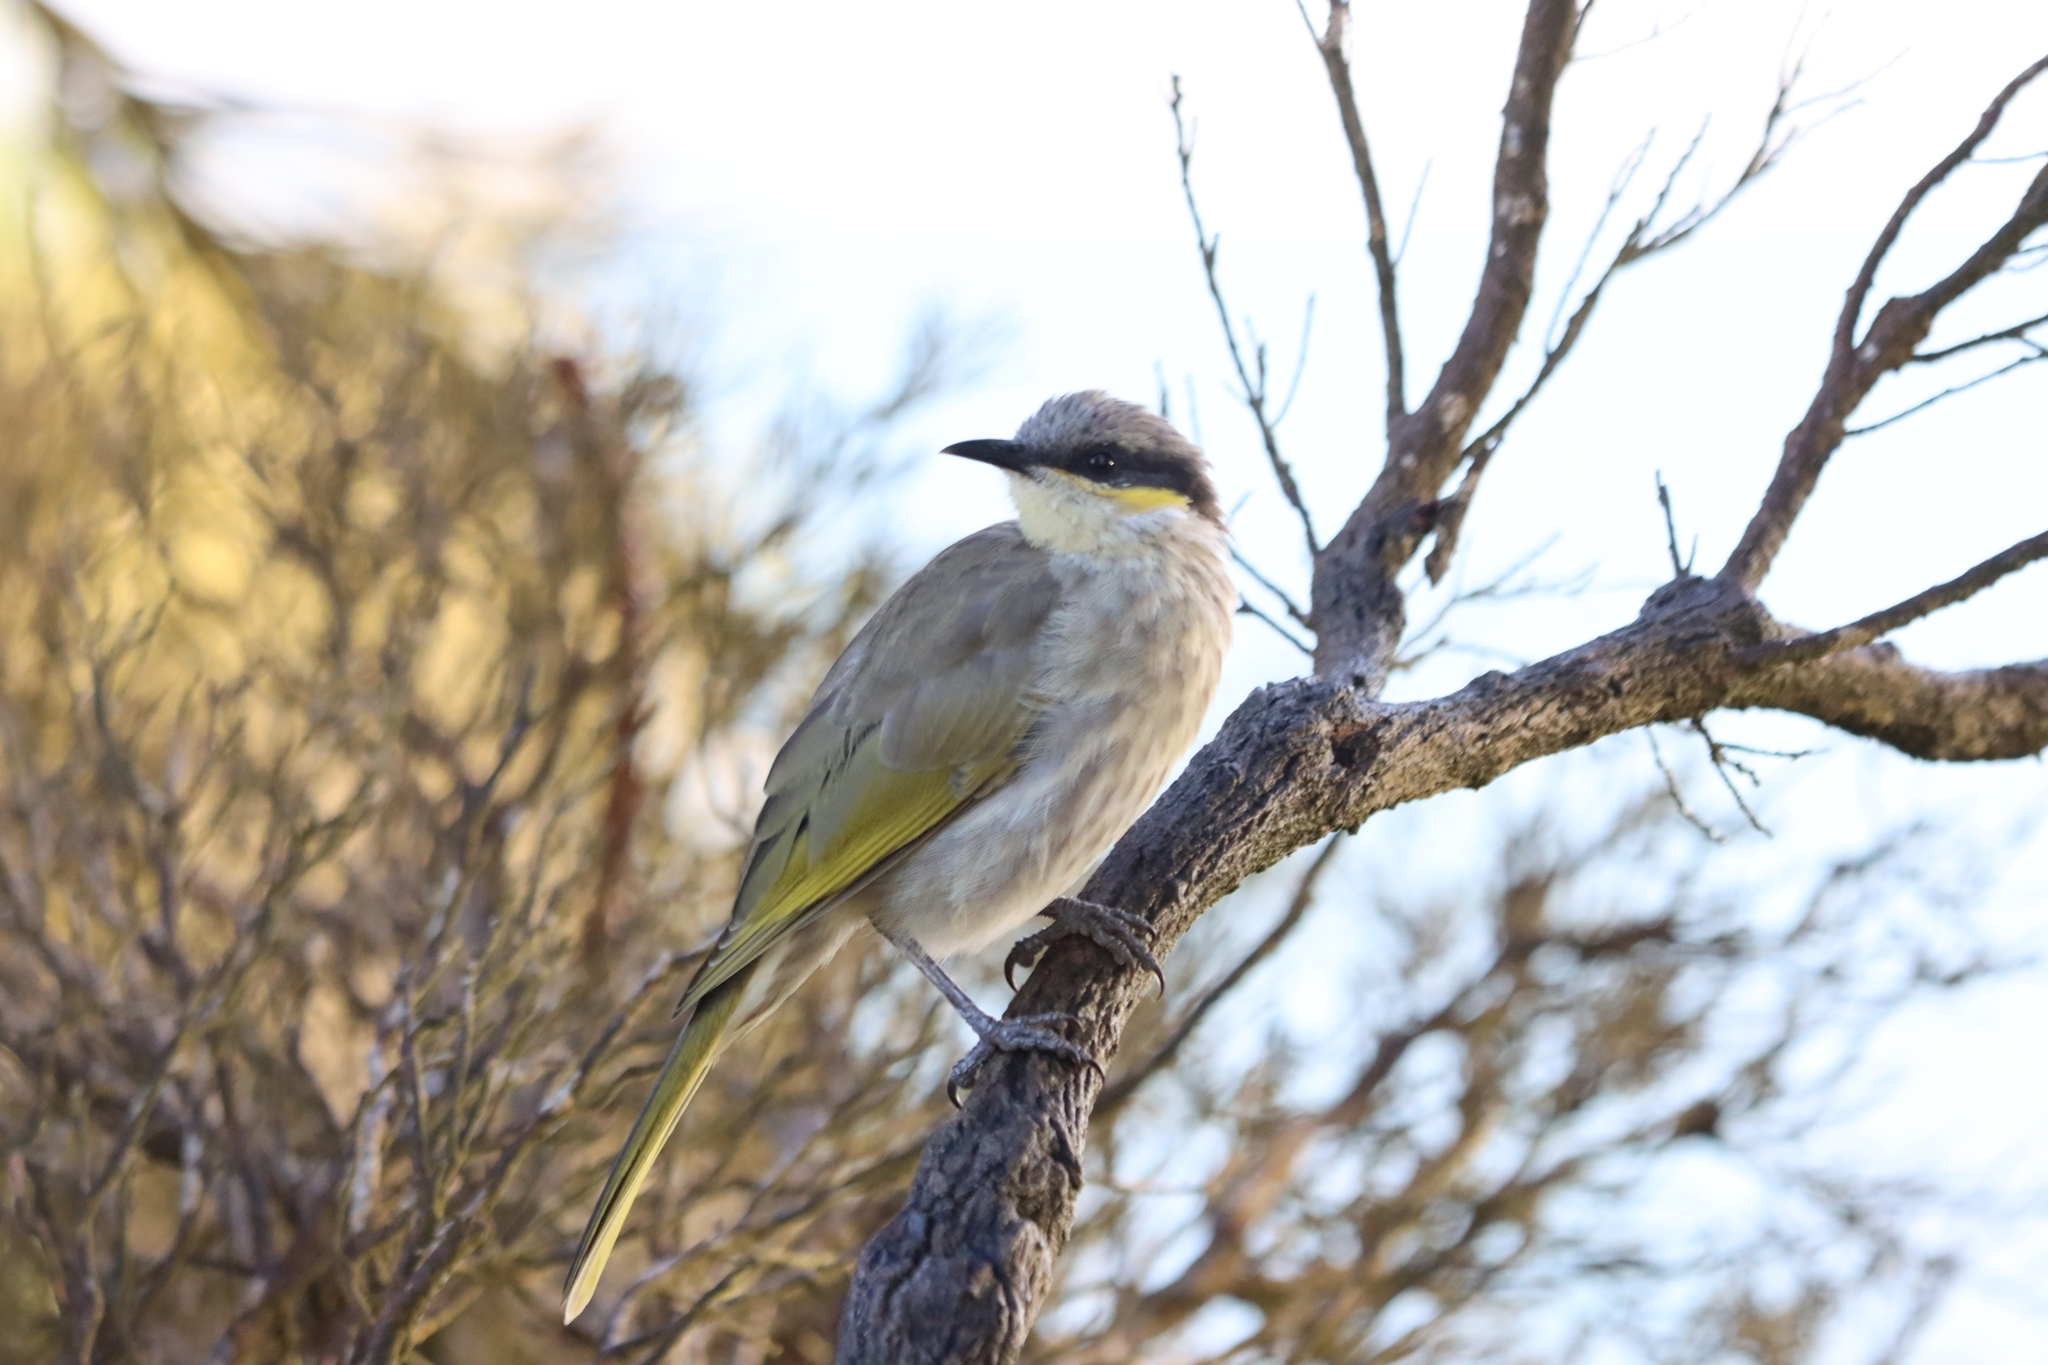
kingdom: Animalia
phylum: Chordata
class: Aves
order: Passeriformes
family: Meliphagidae
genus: Gavicalis
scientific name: Gavicalis virescens
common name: Singing honeyeater
